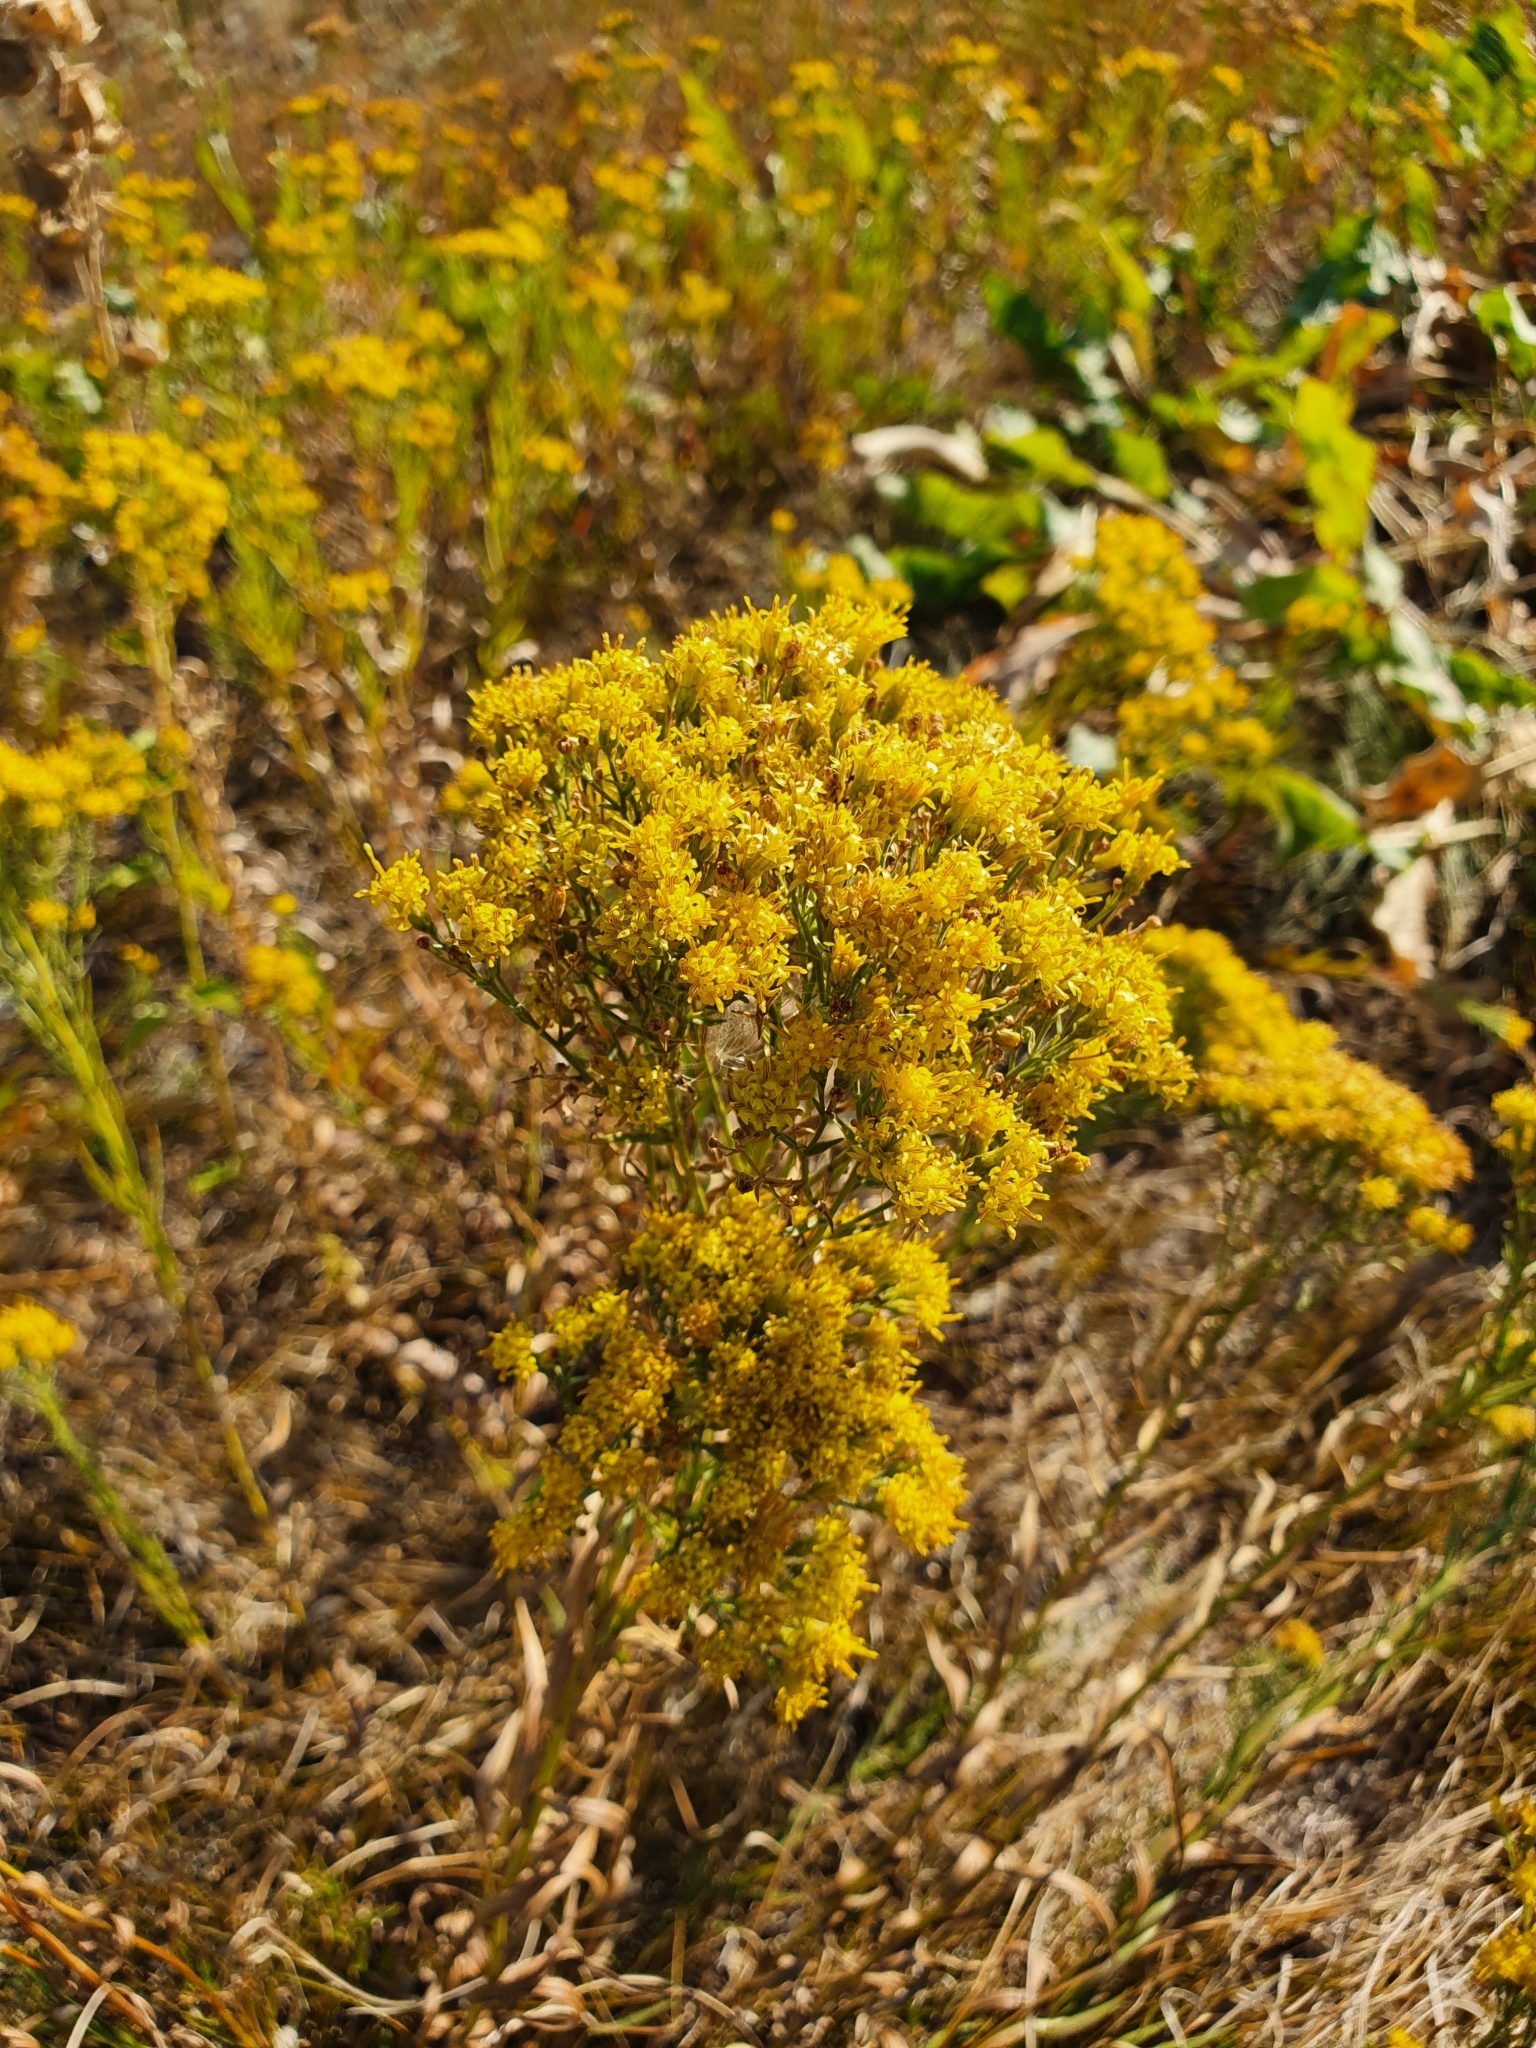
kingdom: Plantae
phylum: Tracheophyta
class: Magnoliopsida
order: Asterales
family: Asteraceae
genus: Galatella
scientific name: Galatella biflora
